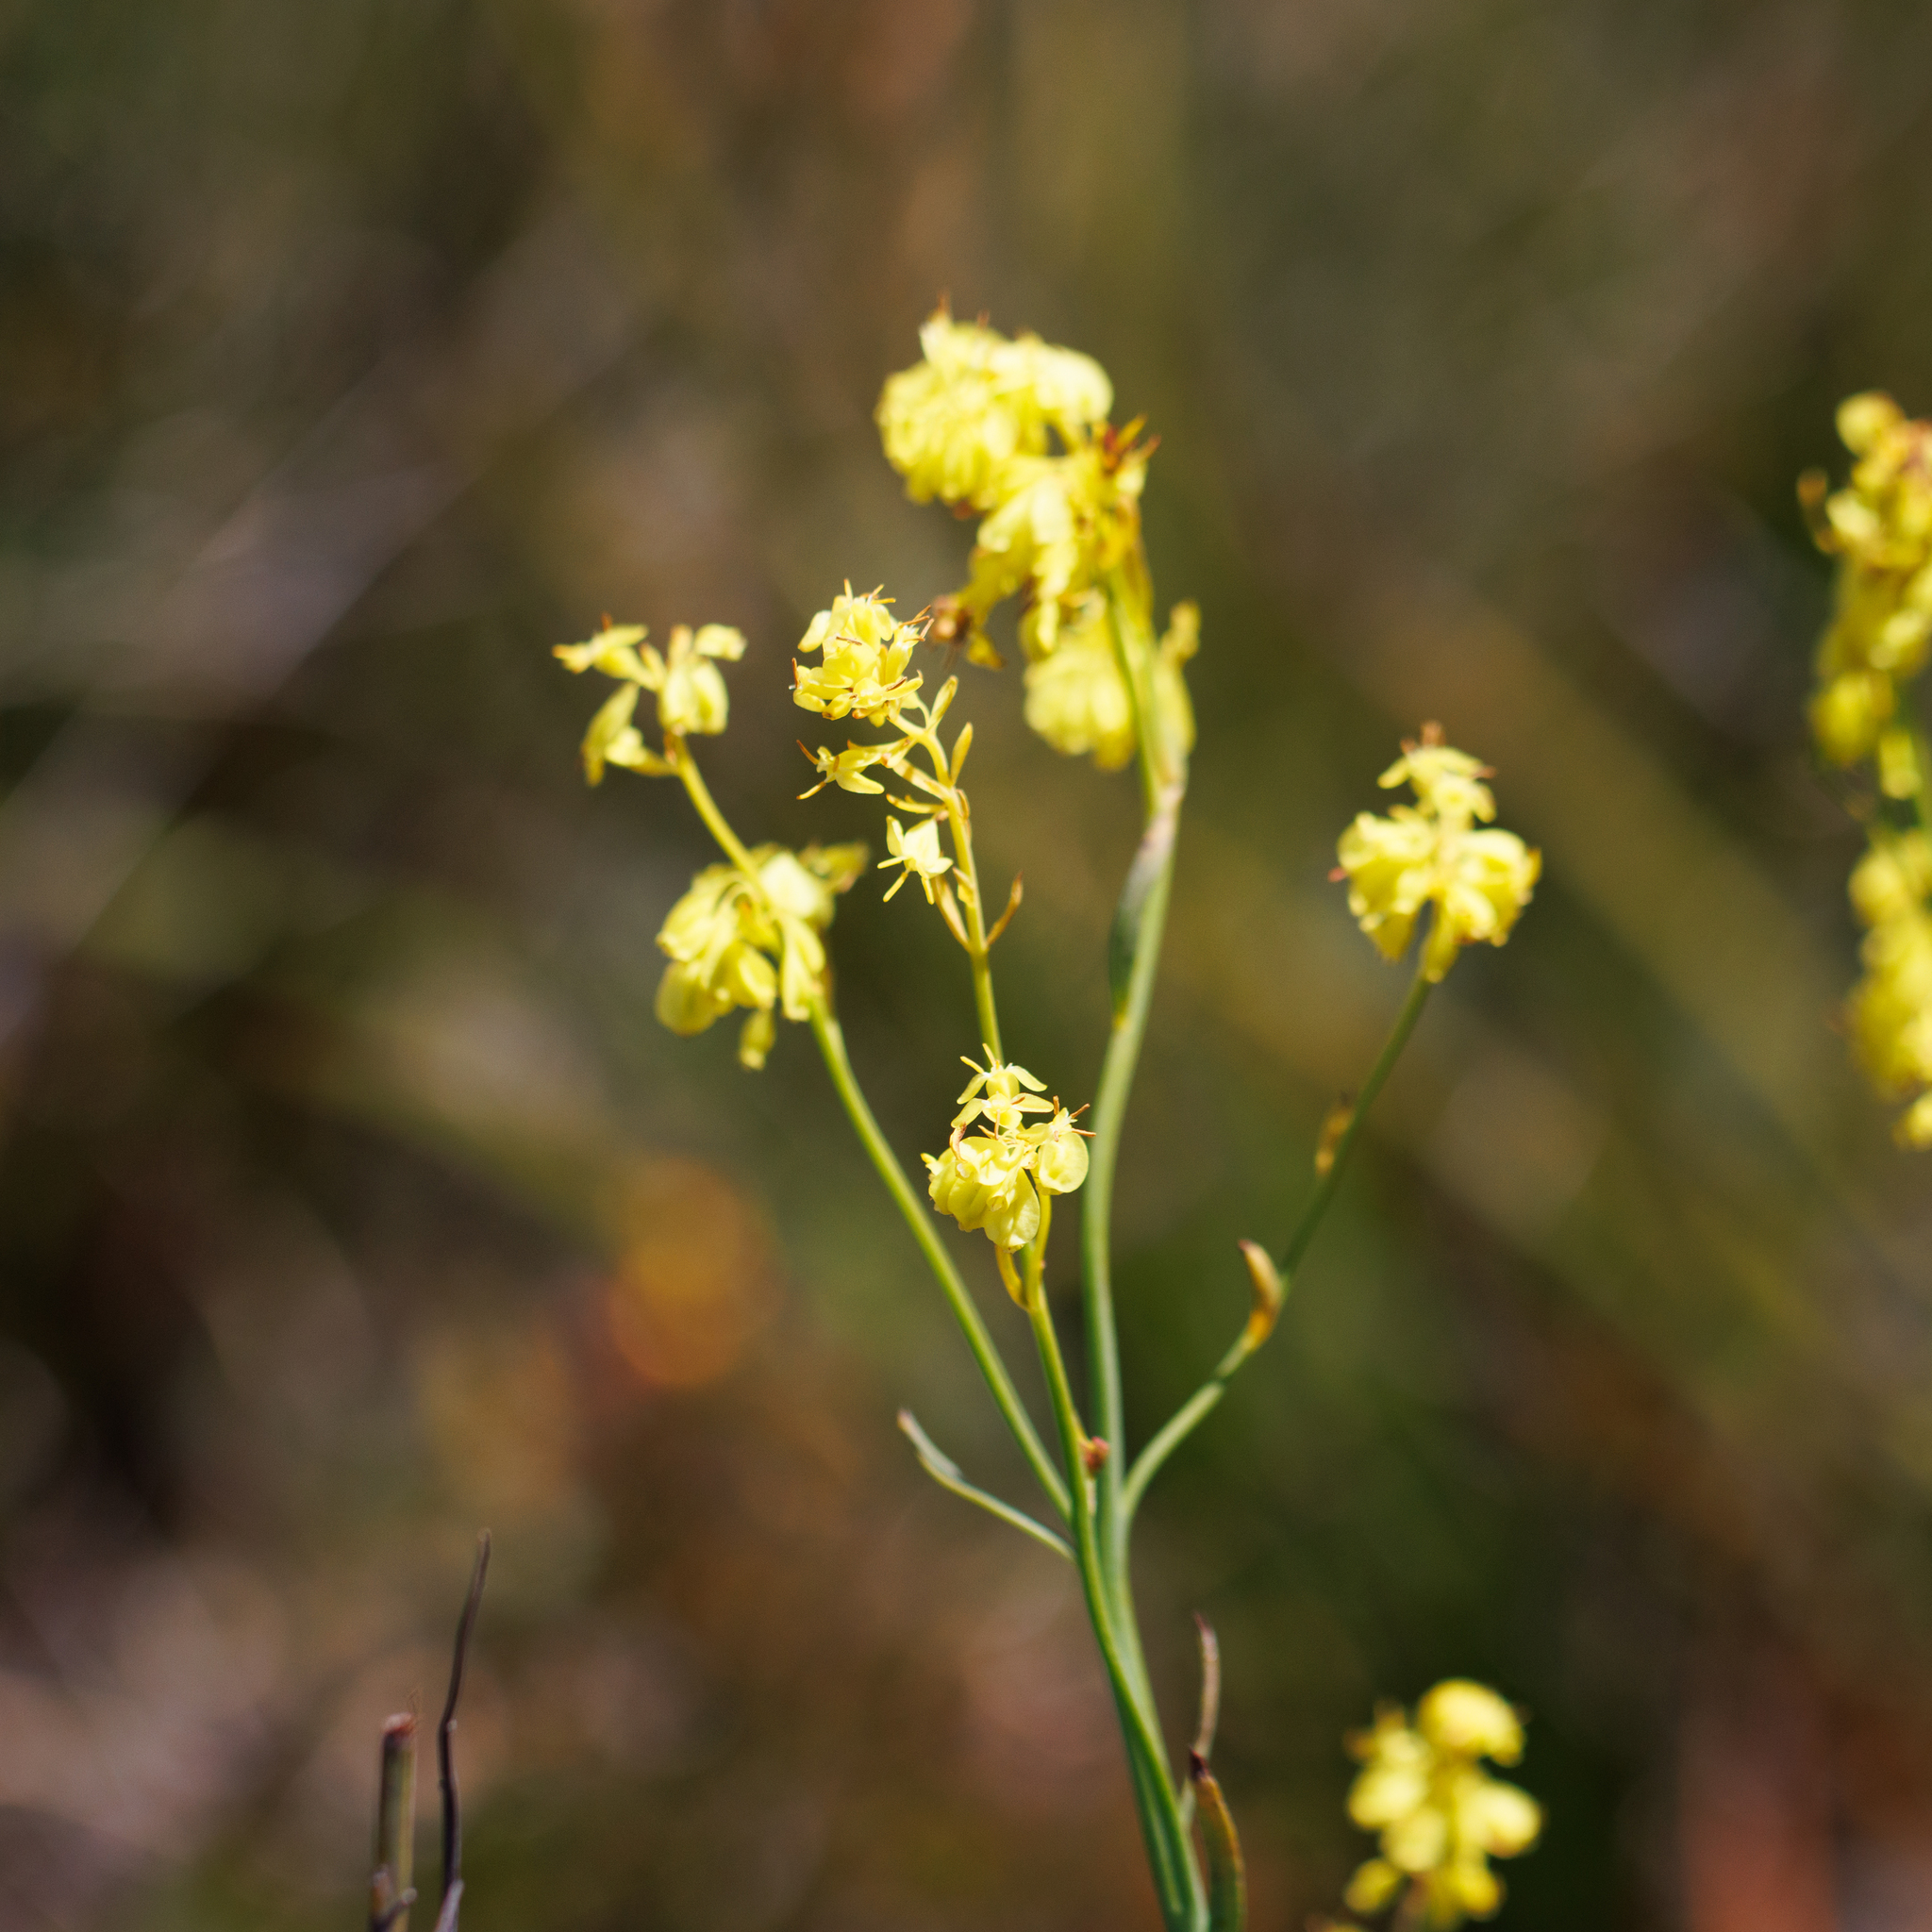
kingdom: Plantae
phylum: Tracheophyta
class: Magnoliopsida
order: Saxifragales
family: Haloragaceae
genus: Glischrocaryon
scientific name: Glischrocaryon behrii
